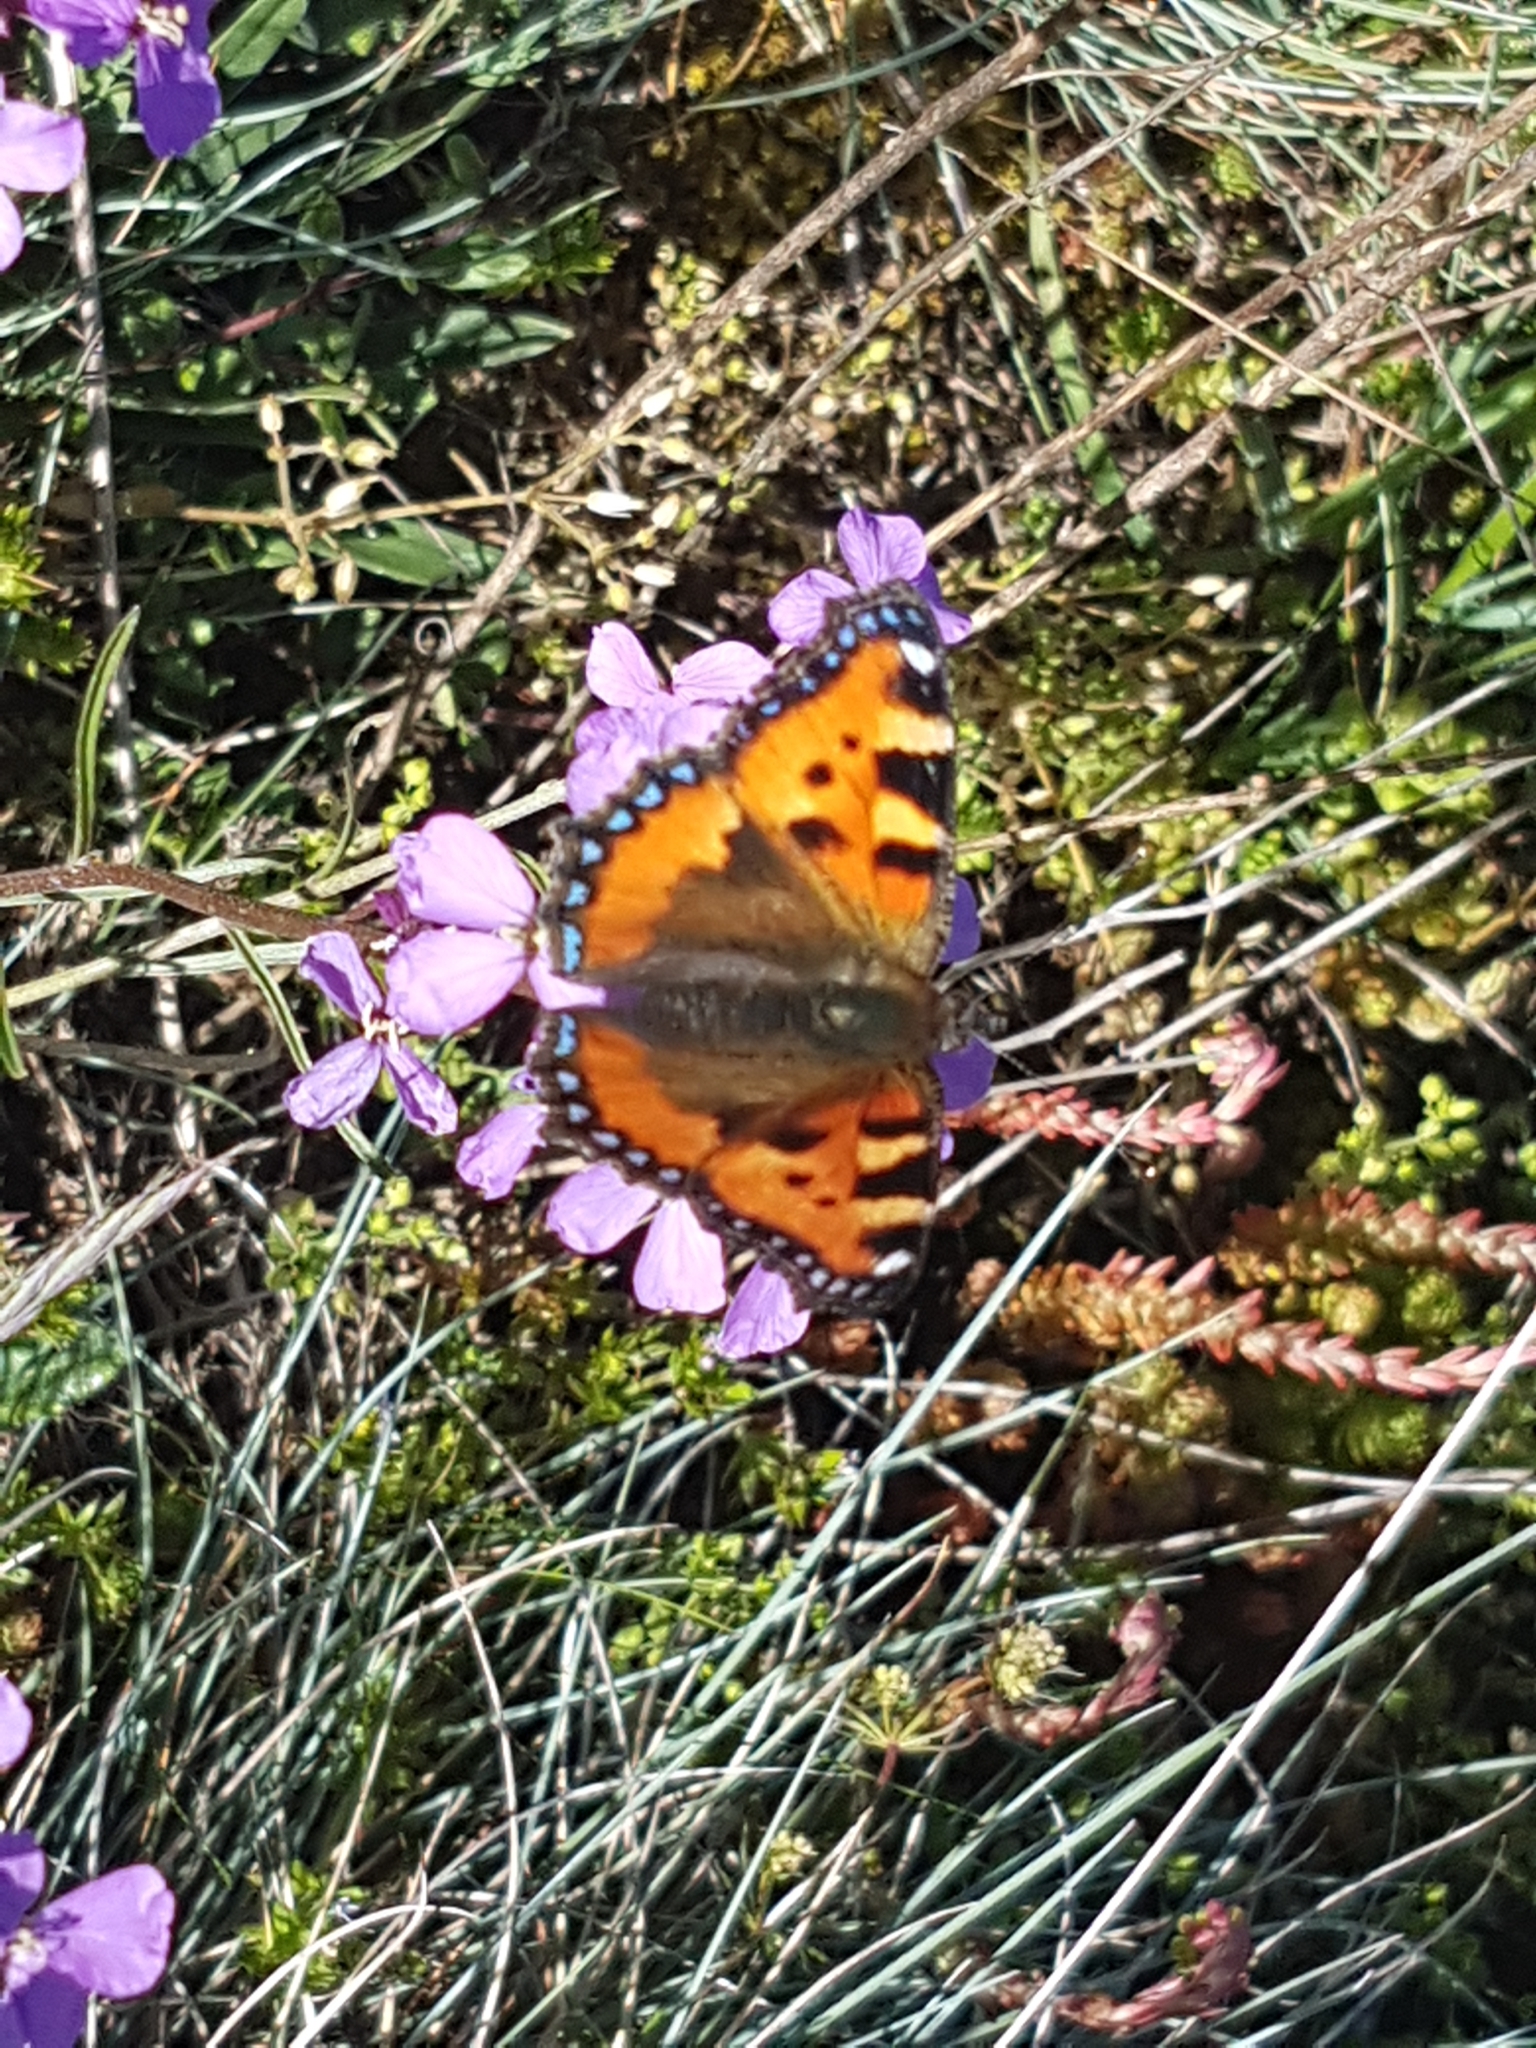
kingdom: Animalia
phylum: Arthropoda
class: Insecta
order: Lepidoptera
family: Nymphalidae
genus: Aglais
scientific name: Aglais urticae
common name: Small tortoiseshell
